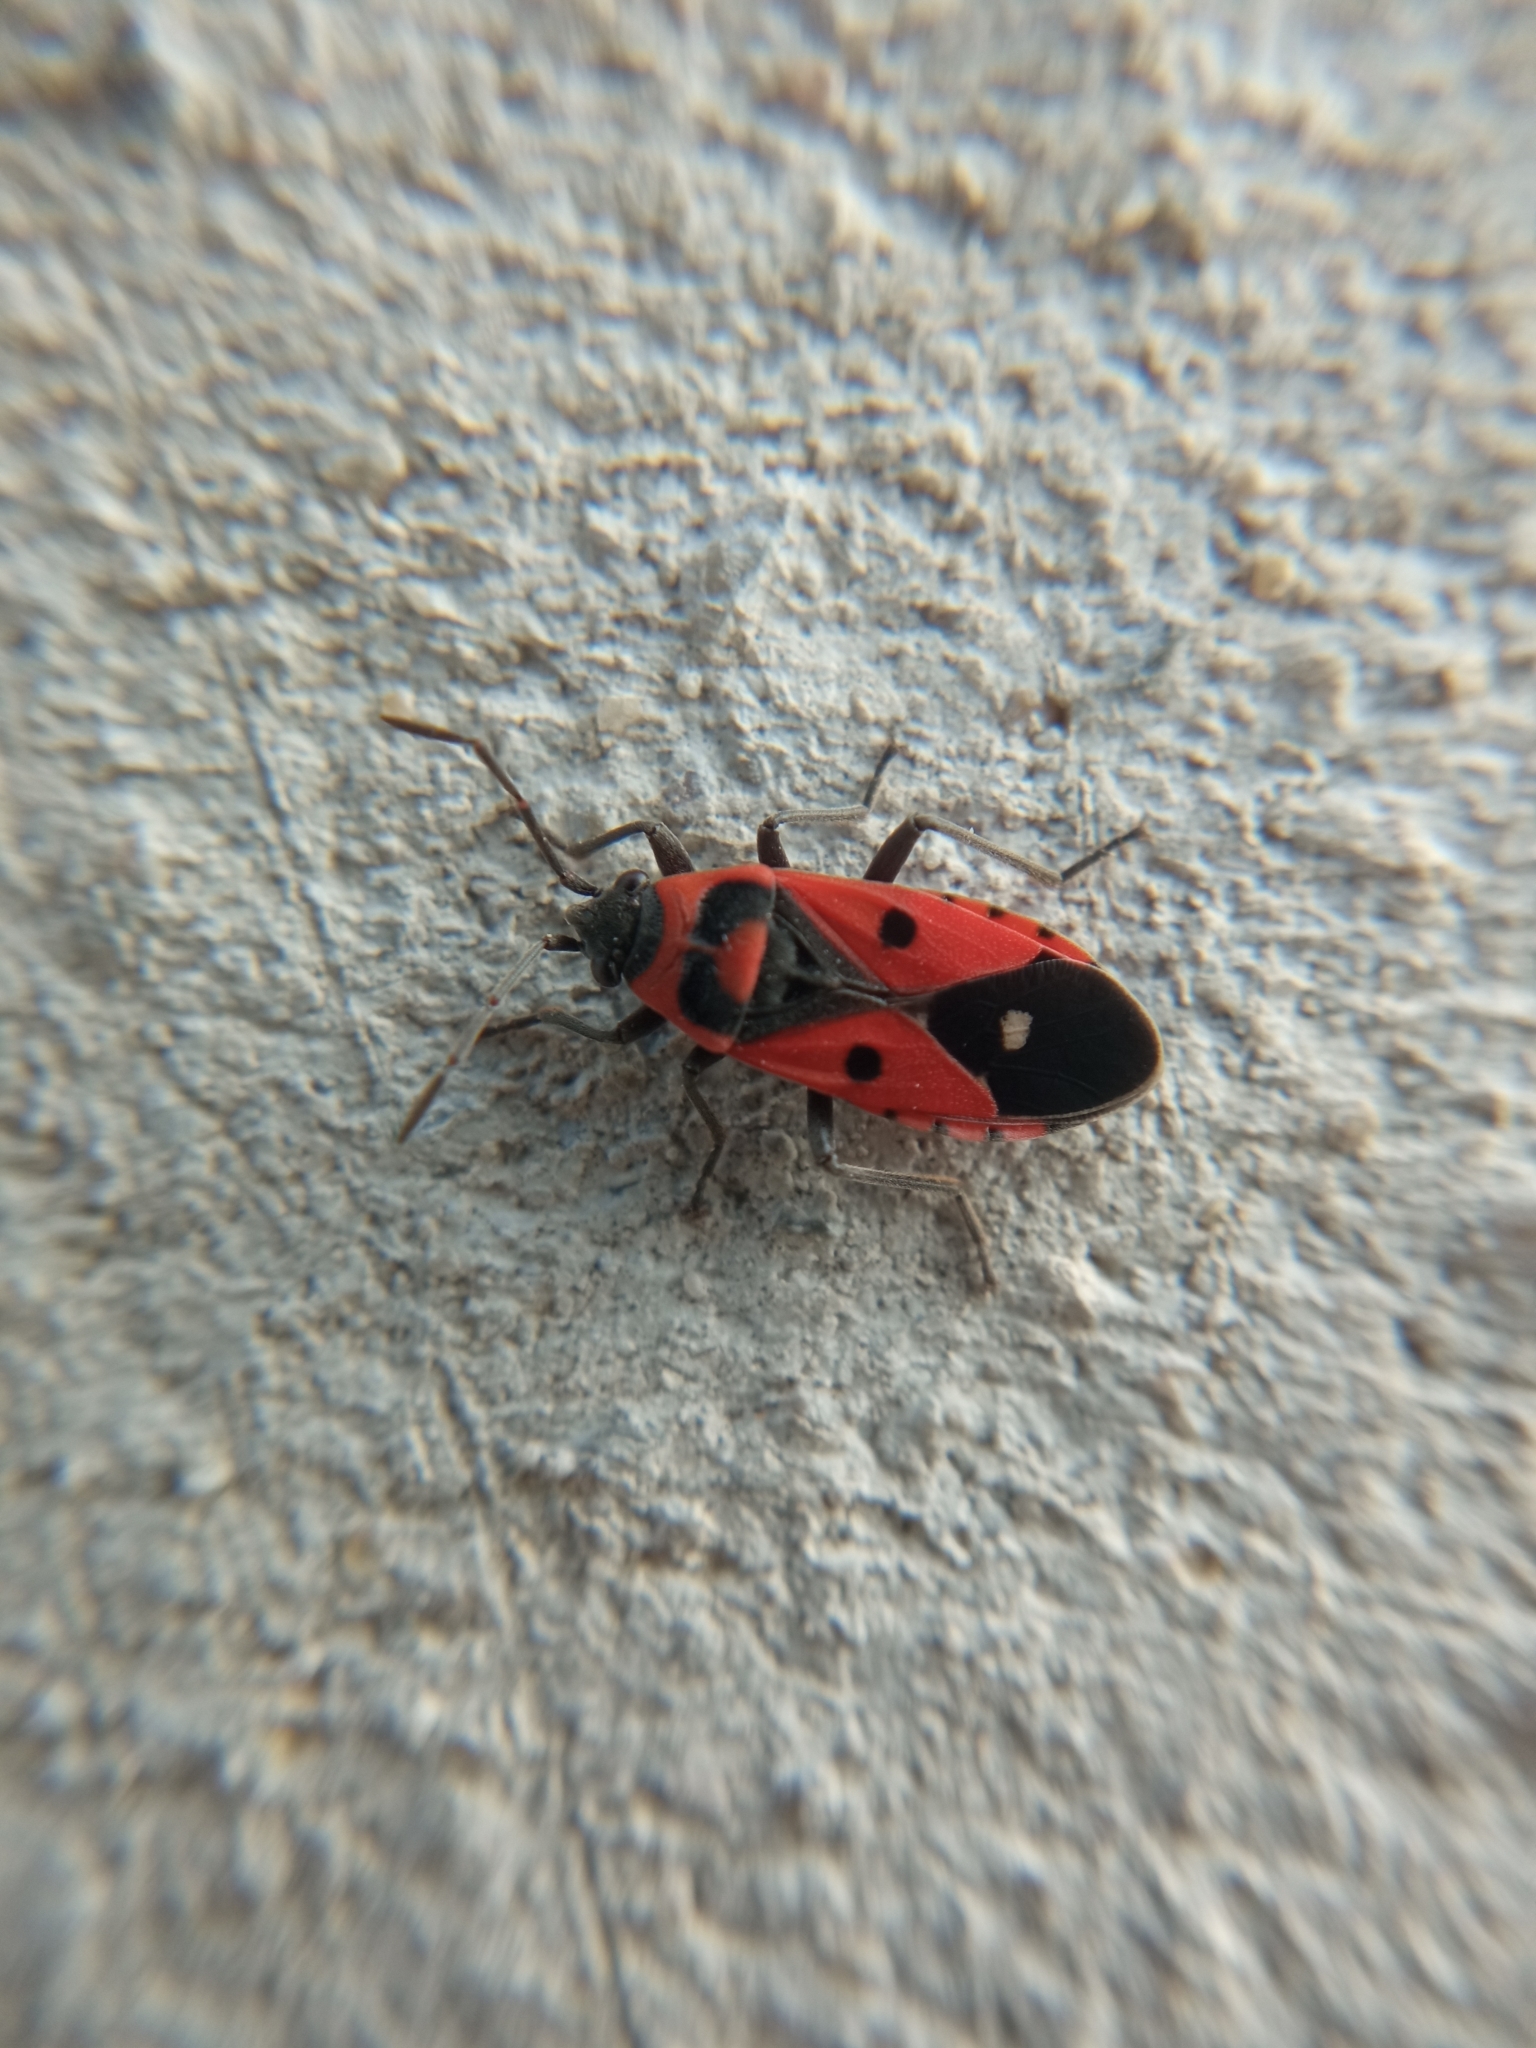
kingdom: Animalia
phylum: Arthropoda
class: Insecta
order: Hemiptera
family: Lygaeidae
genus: Melanocoryphus
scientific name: Melanocoryphus albomaculatus
